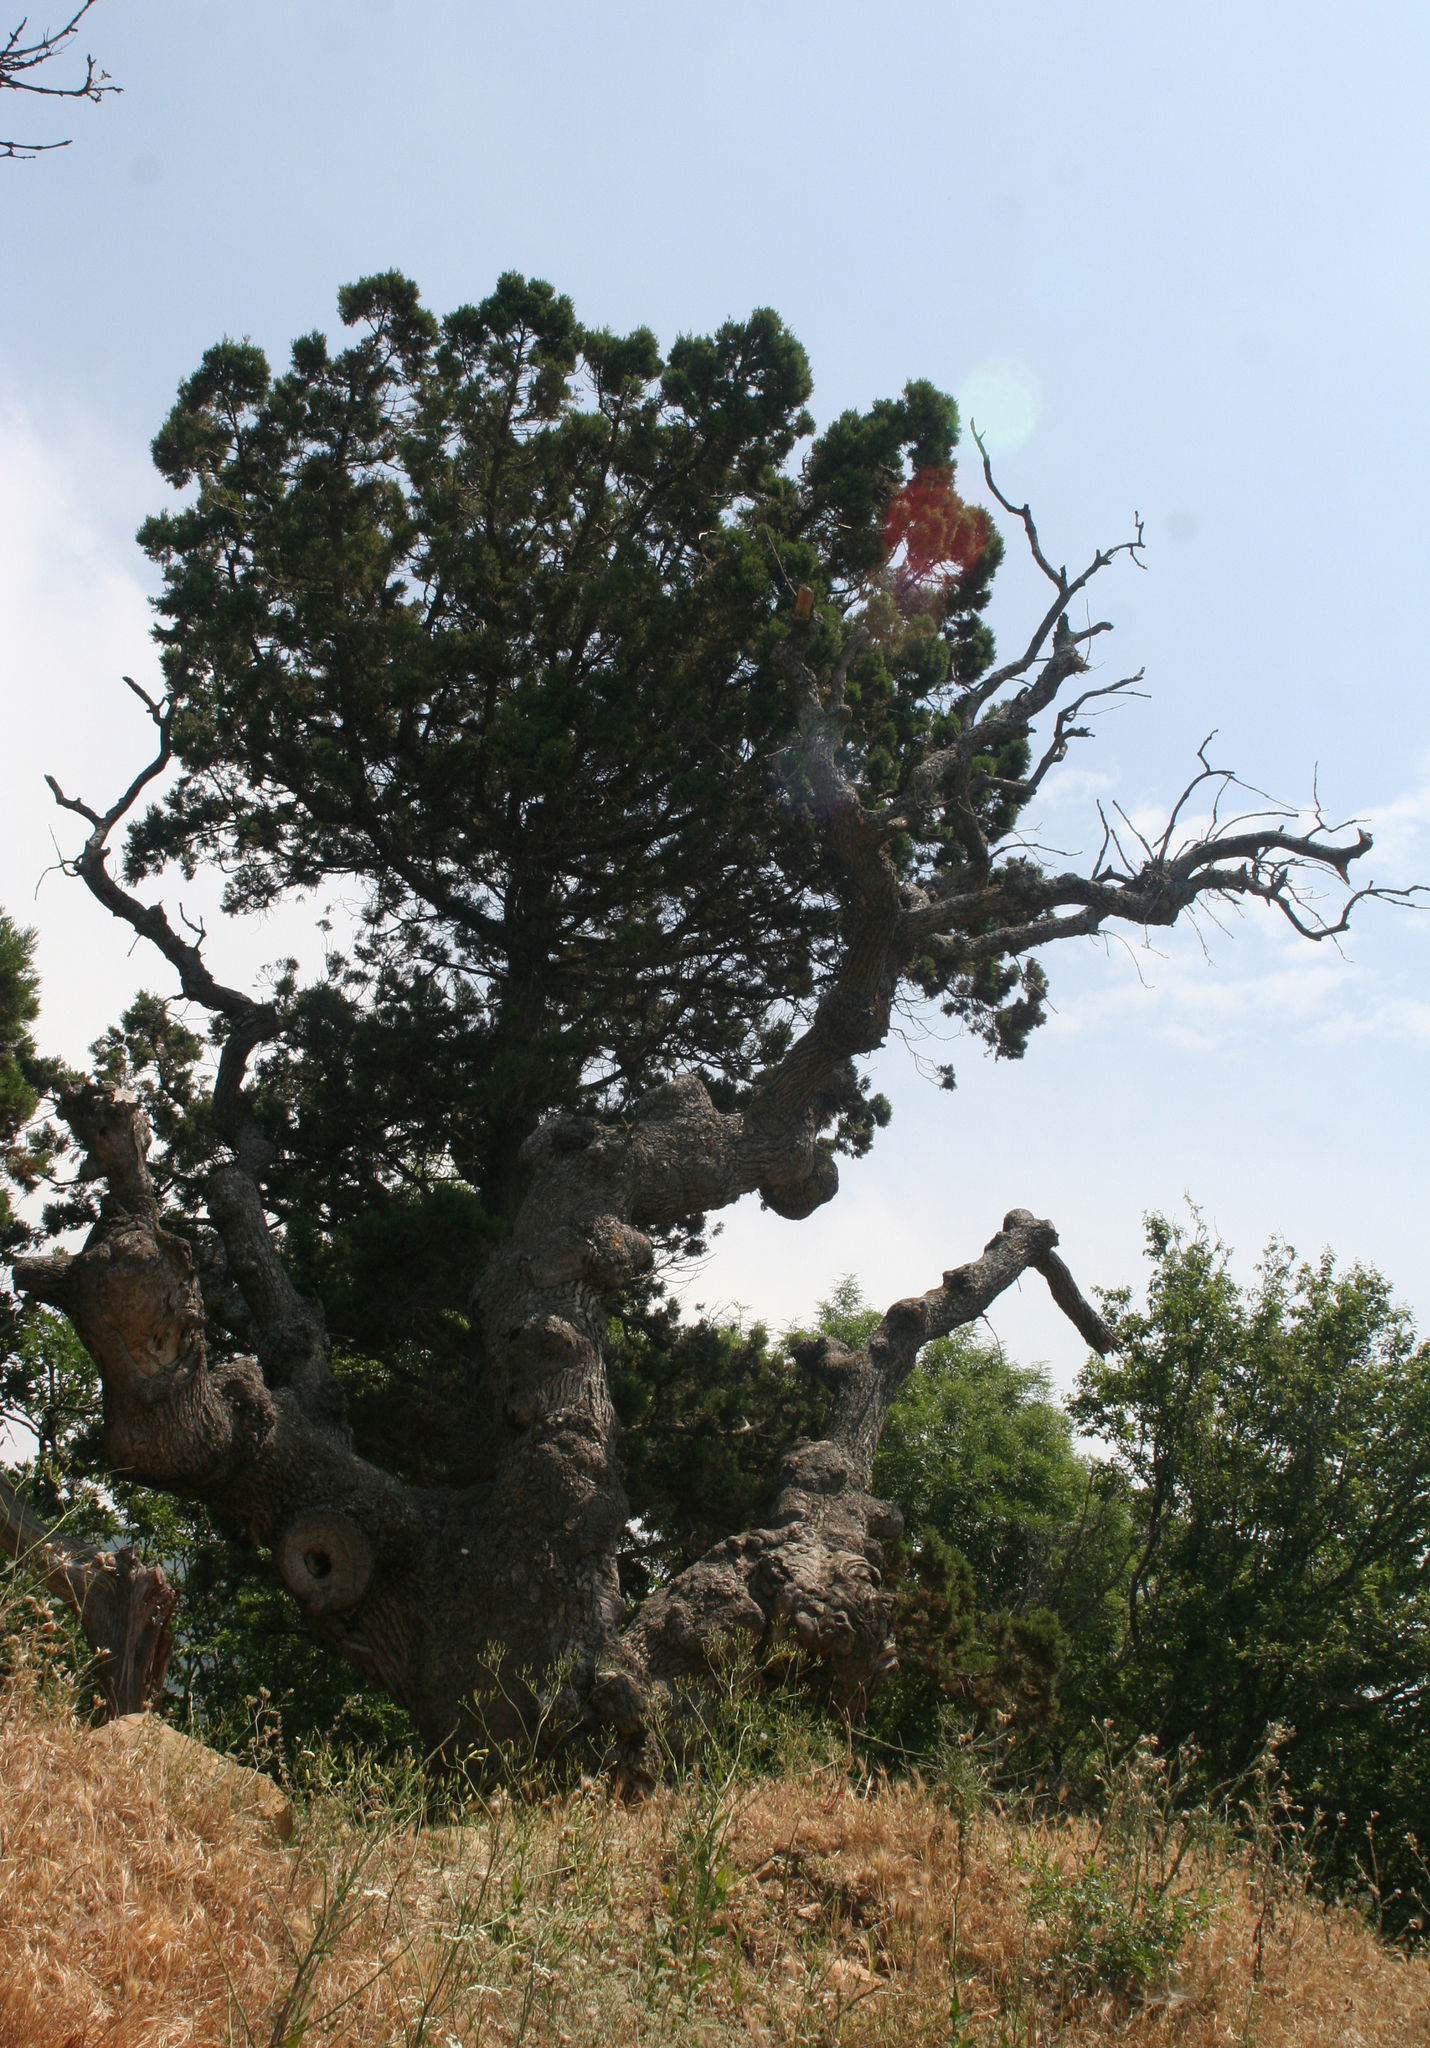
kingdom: Plantae
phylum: Tracheophyta
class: Pinopsida
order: Pinales
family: Cupressaceae
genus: Juniperus
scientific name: Juniperus excelsa
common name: Crimean juniper
